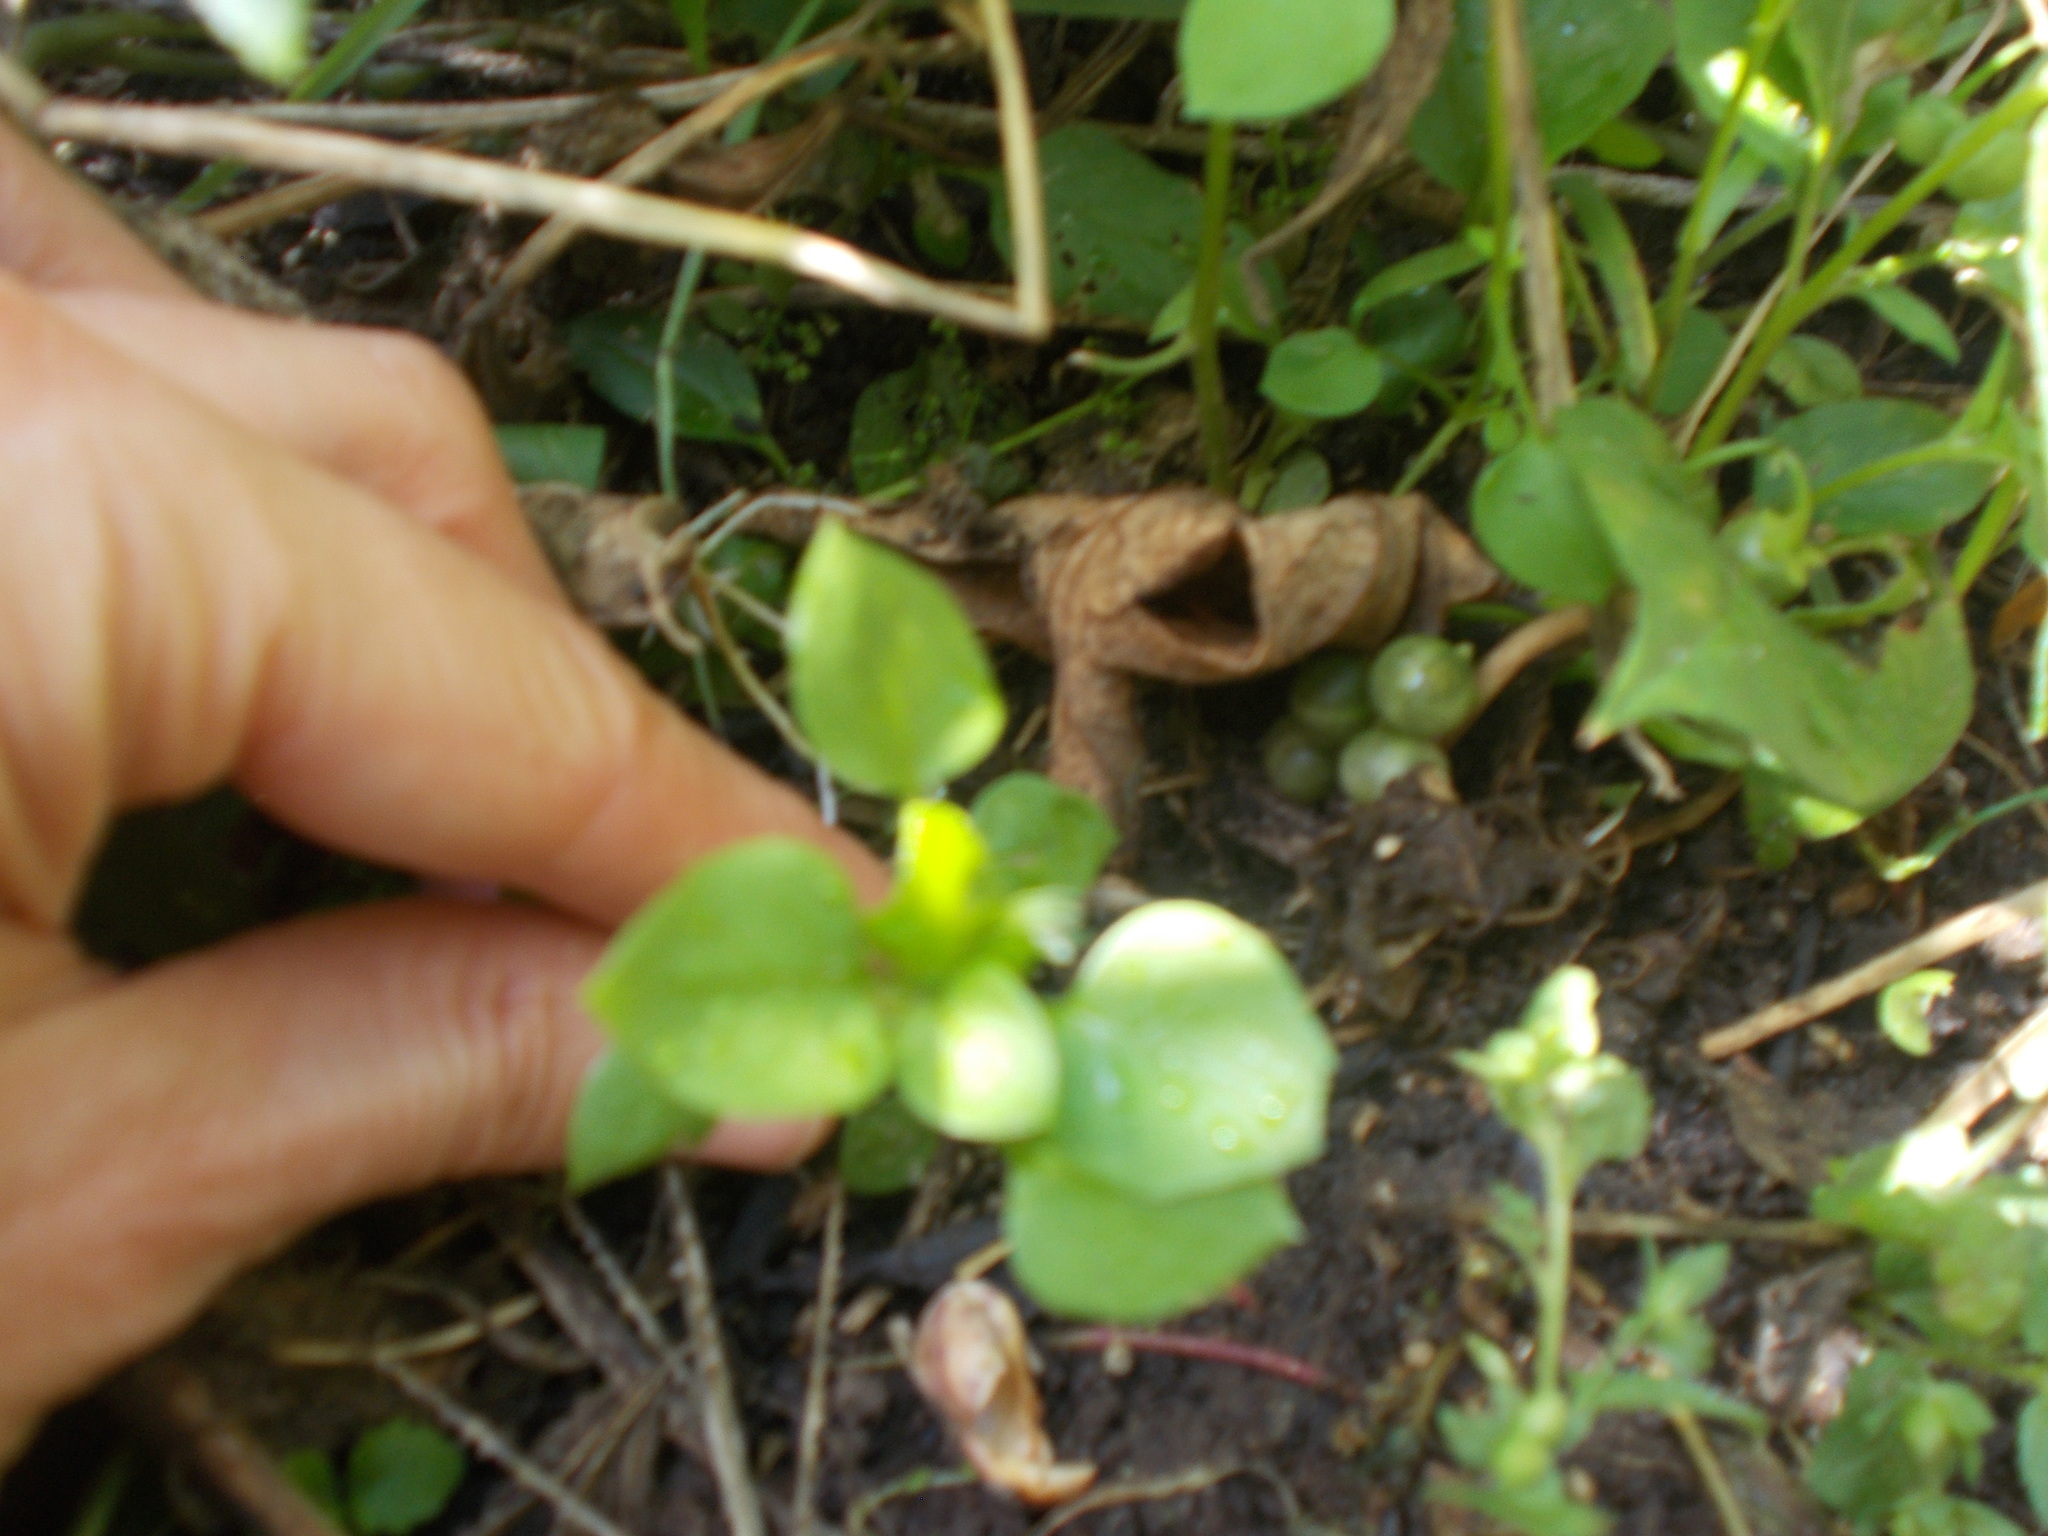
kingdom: Plantae
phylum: Tracheophyta
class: Magnoliopsida
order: Caryophyllales
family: Caryophyllaceae
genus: Stellaria
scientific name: Stellaria media
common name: Common chickweed
